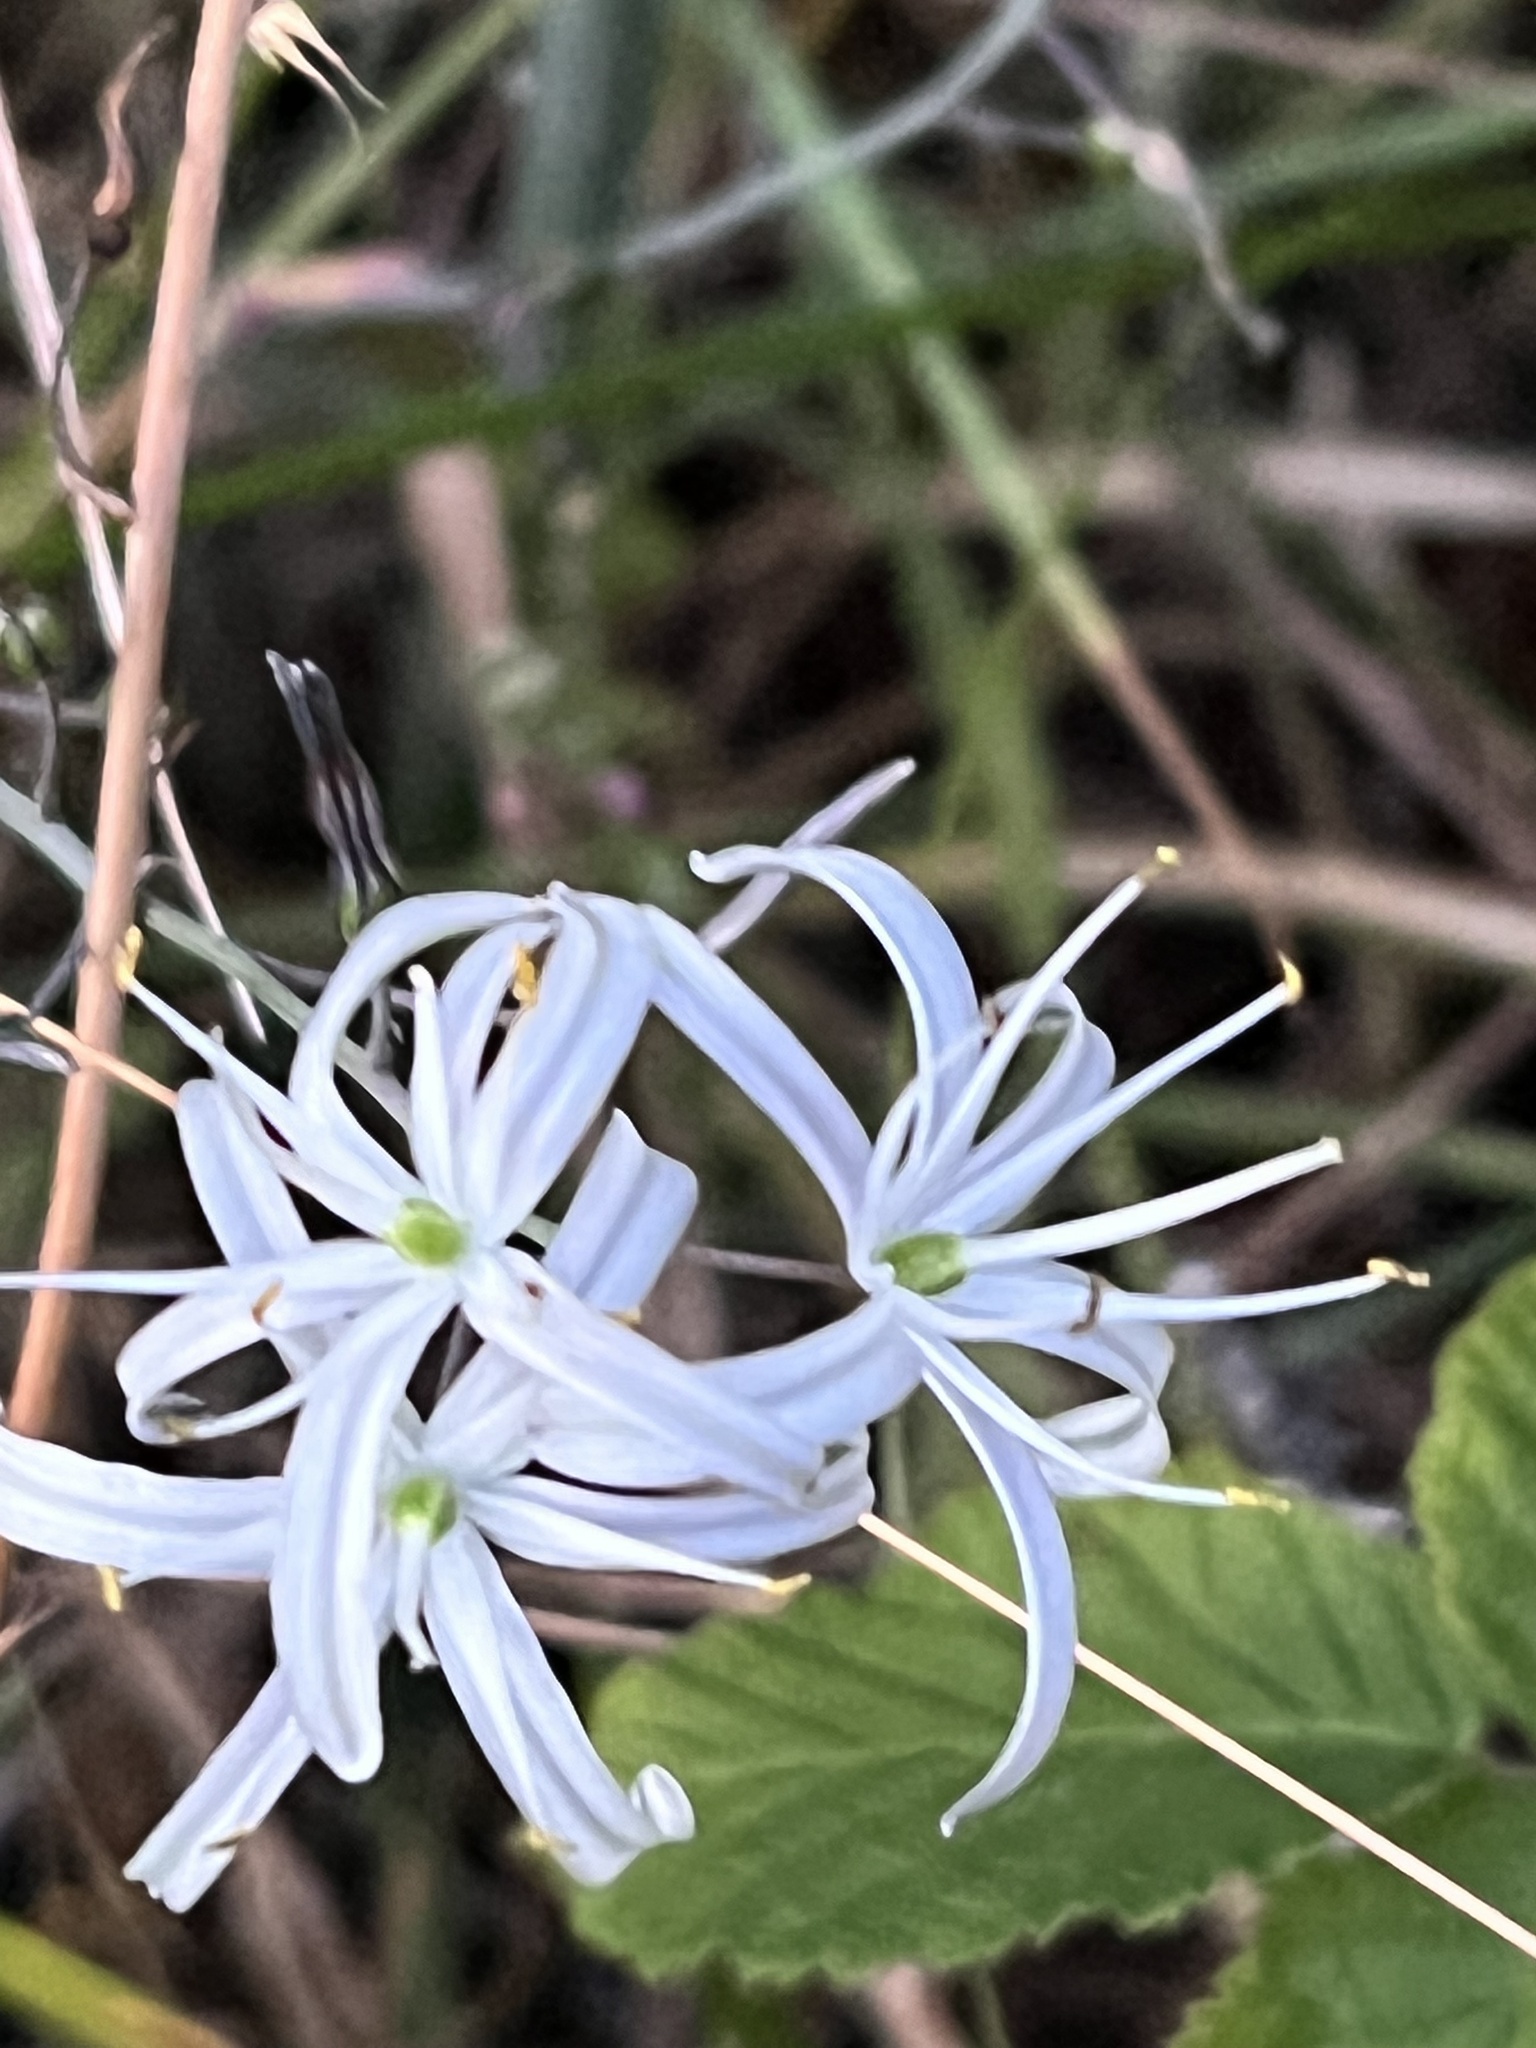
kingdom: Plantae
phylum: Tracheophyta
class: Liliopsida
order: Asparagales
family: Asparagaceae
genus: Chlorogalum
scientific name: Chlorogalum pomeridianum
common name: Amole
